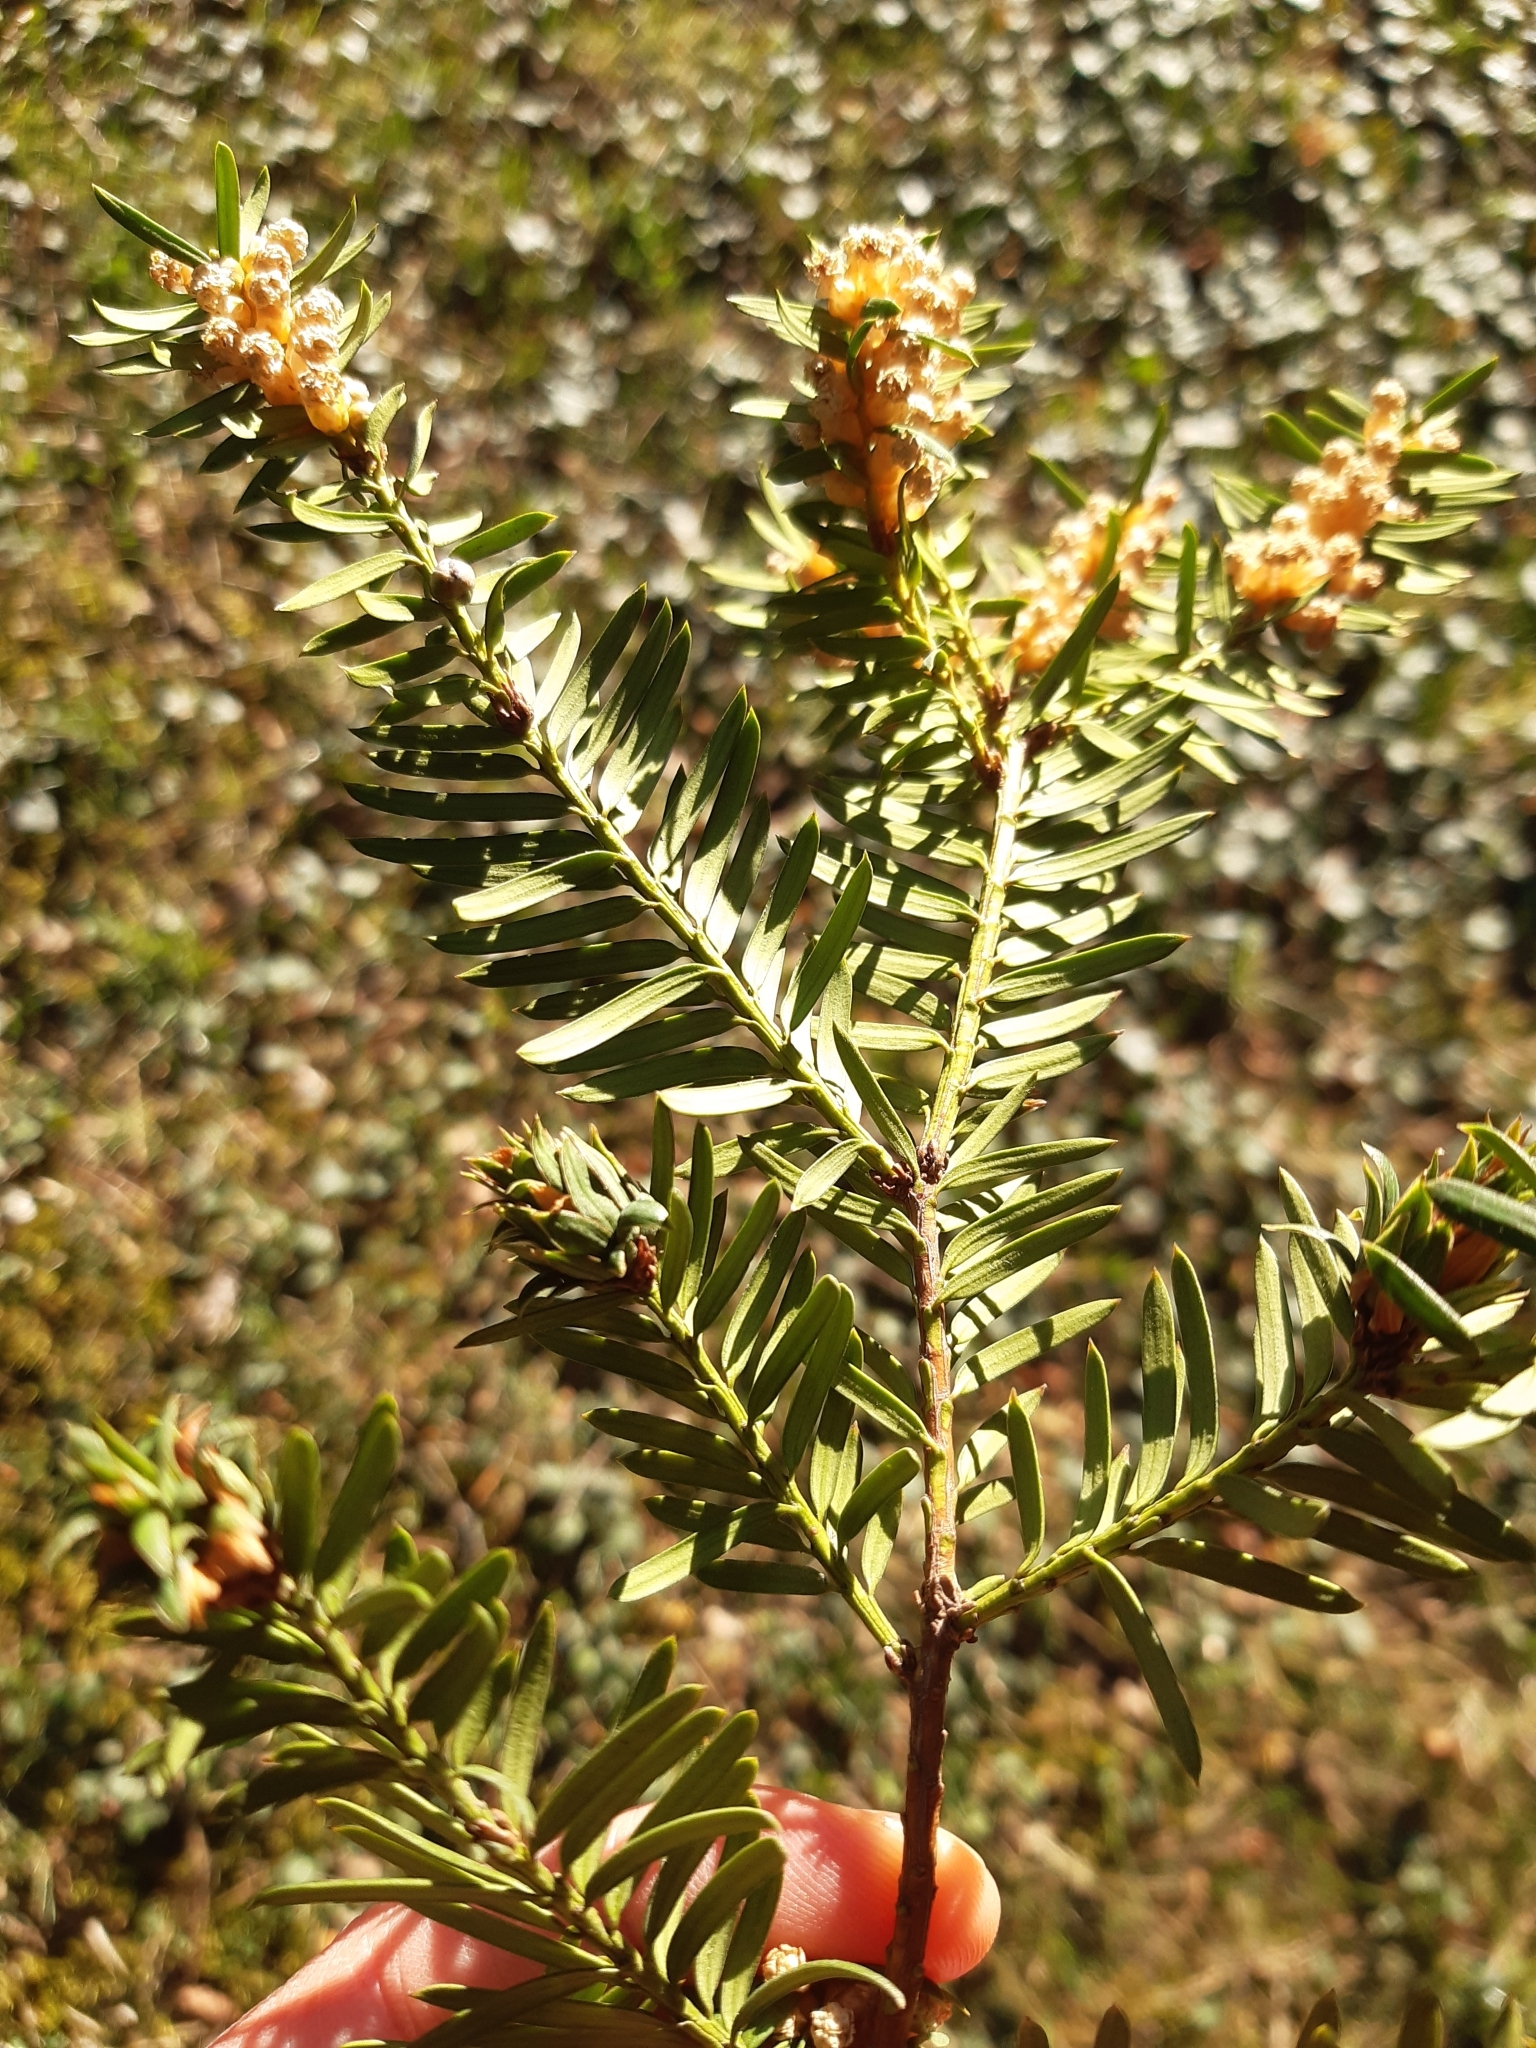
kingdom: Animalia
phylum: Arthropoda
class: Insecta
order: Diptera
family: Cecidomyiidae
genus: Taxomyia
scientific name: Taxomyia taxi
